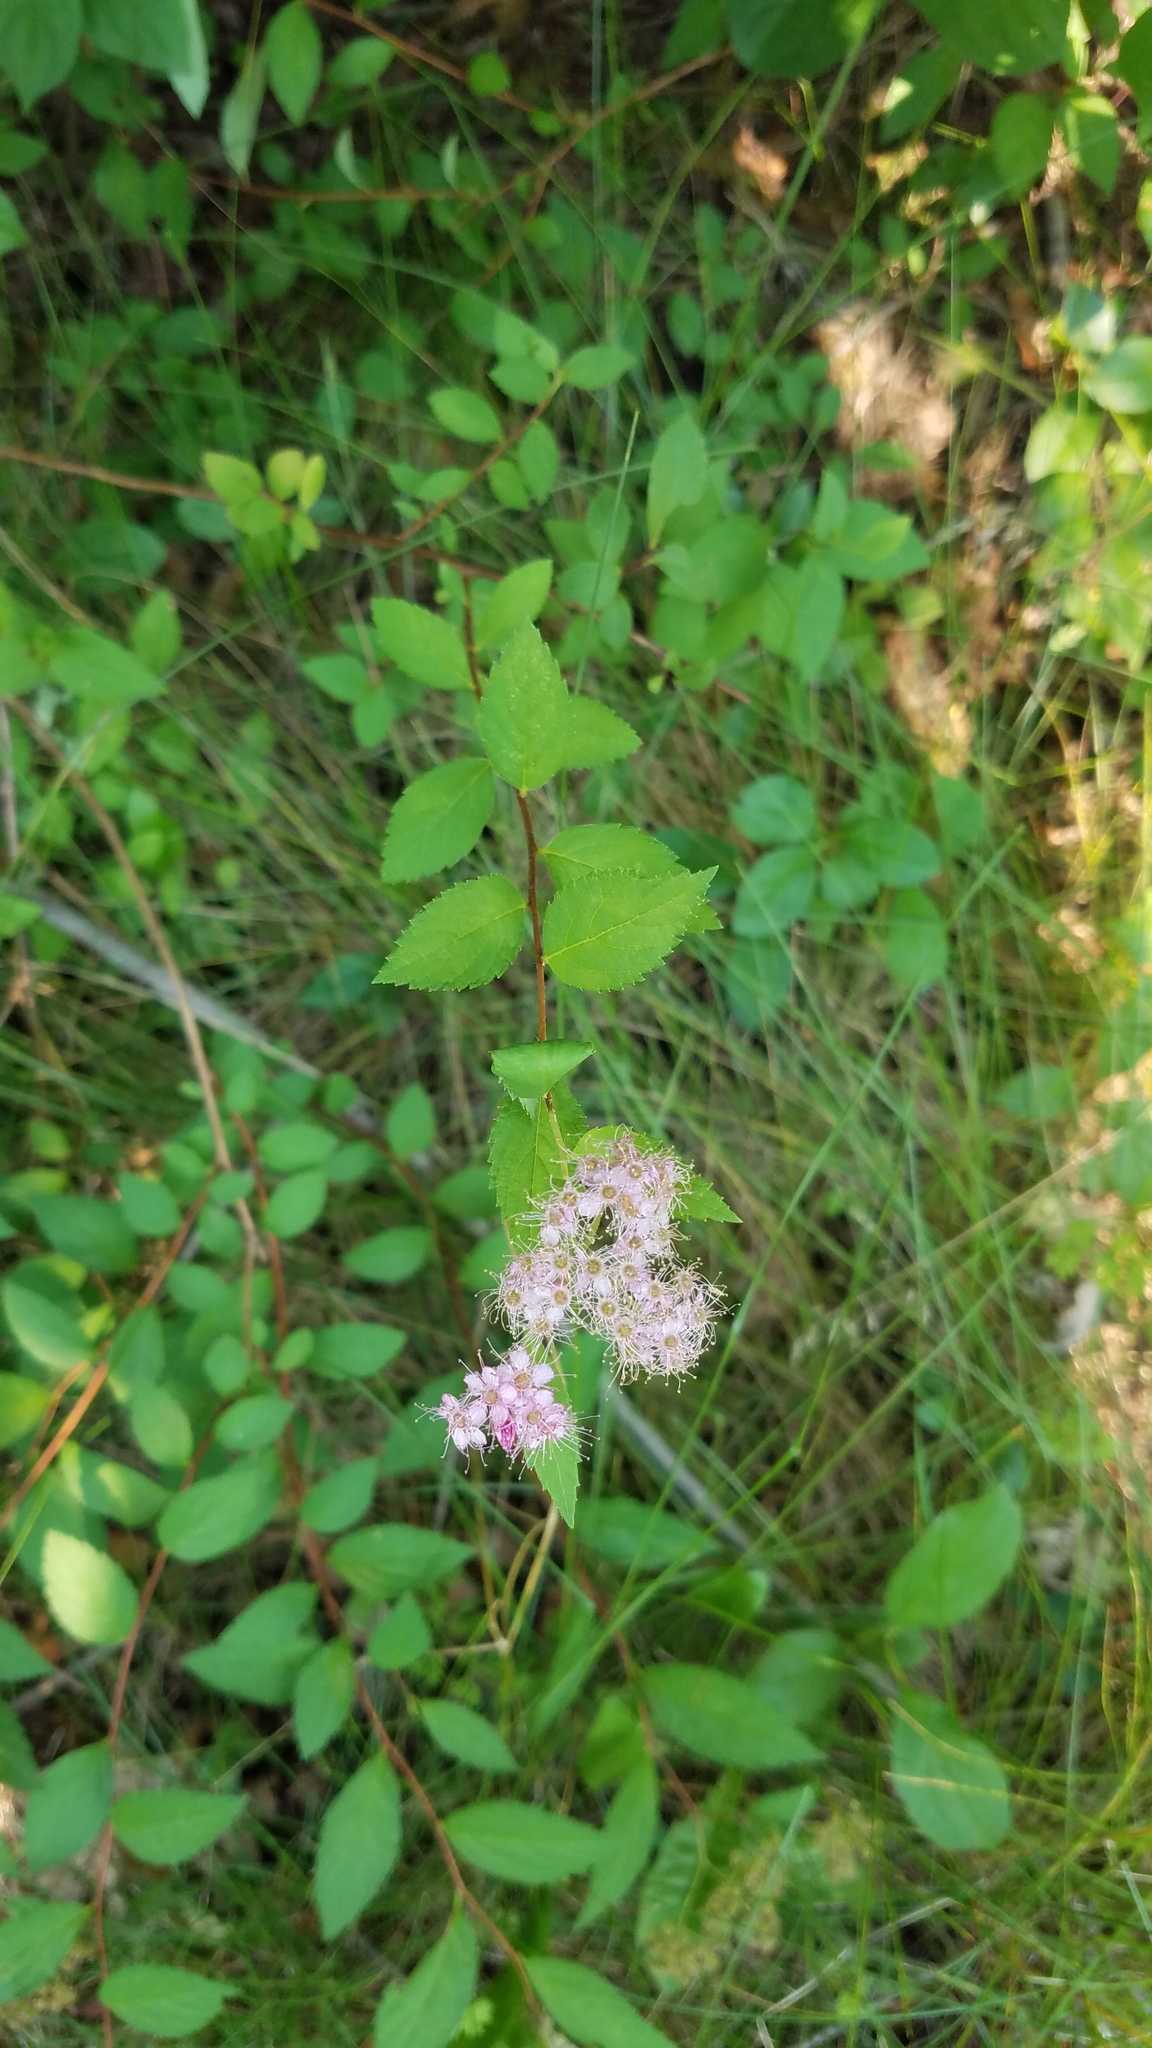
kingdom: Plantae
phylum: Tracheophyta
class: Magnoliopsida
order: Rosales
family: Rosaceae
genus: Spiraea
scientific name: Spiraea japonica
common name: Japanese spiraea
